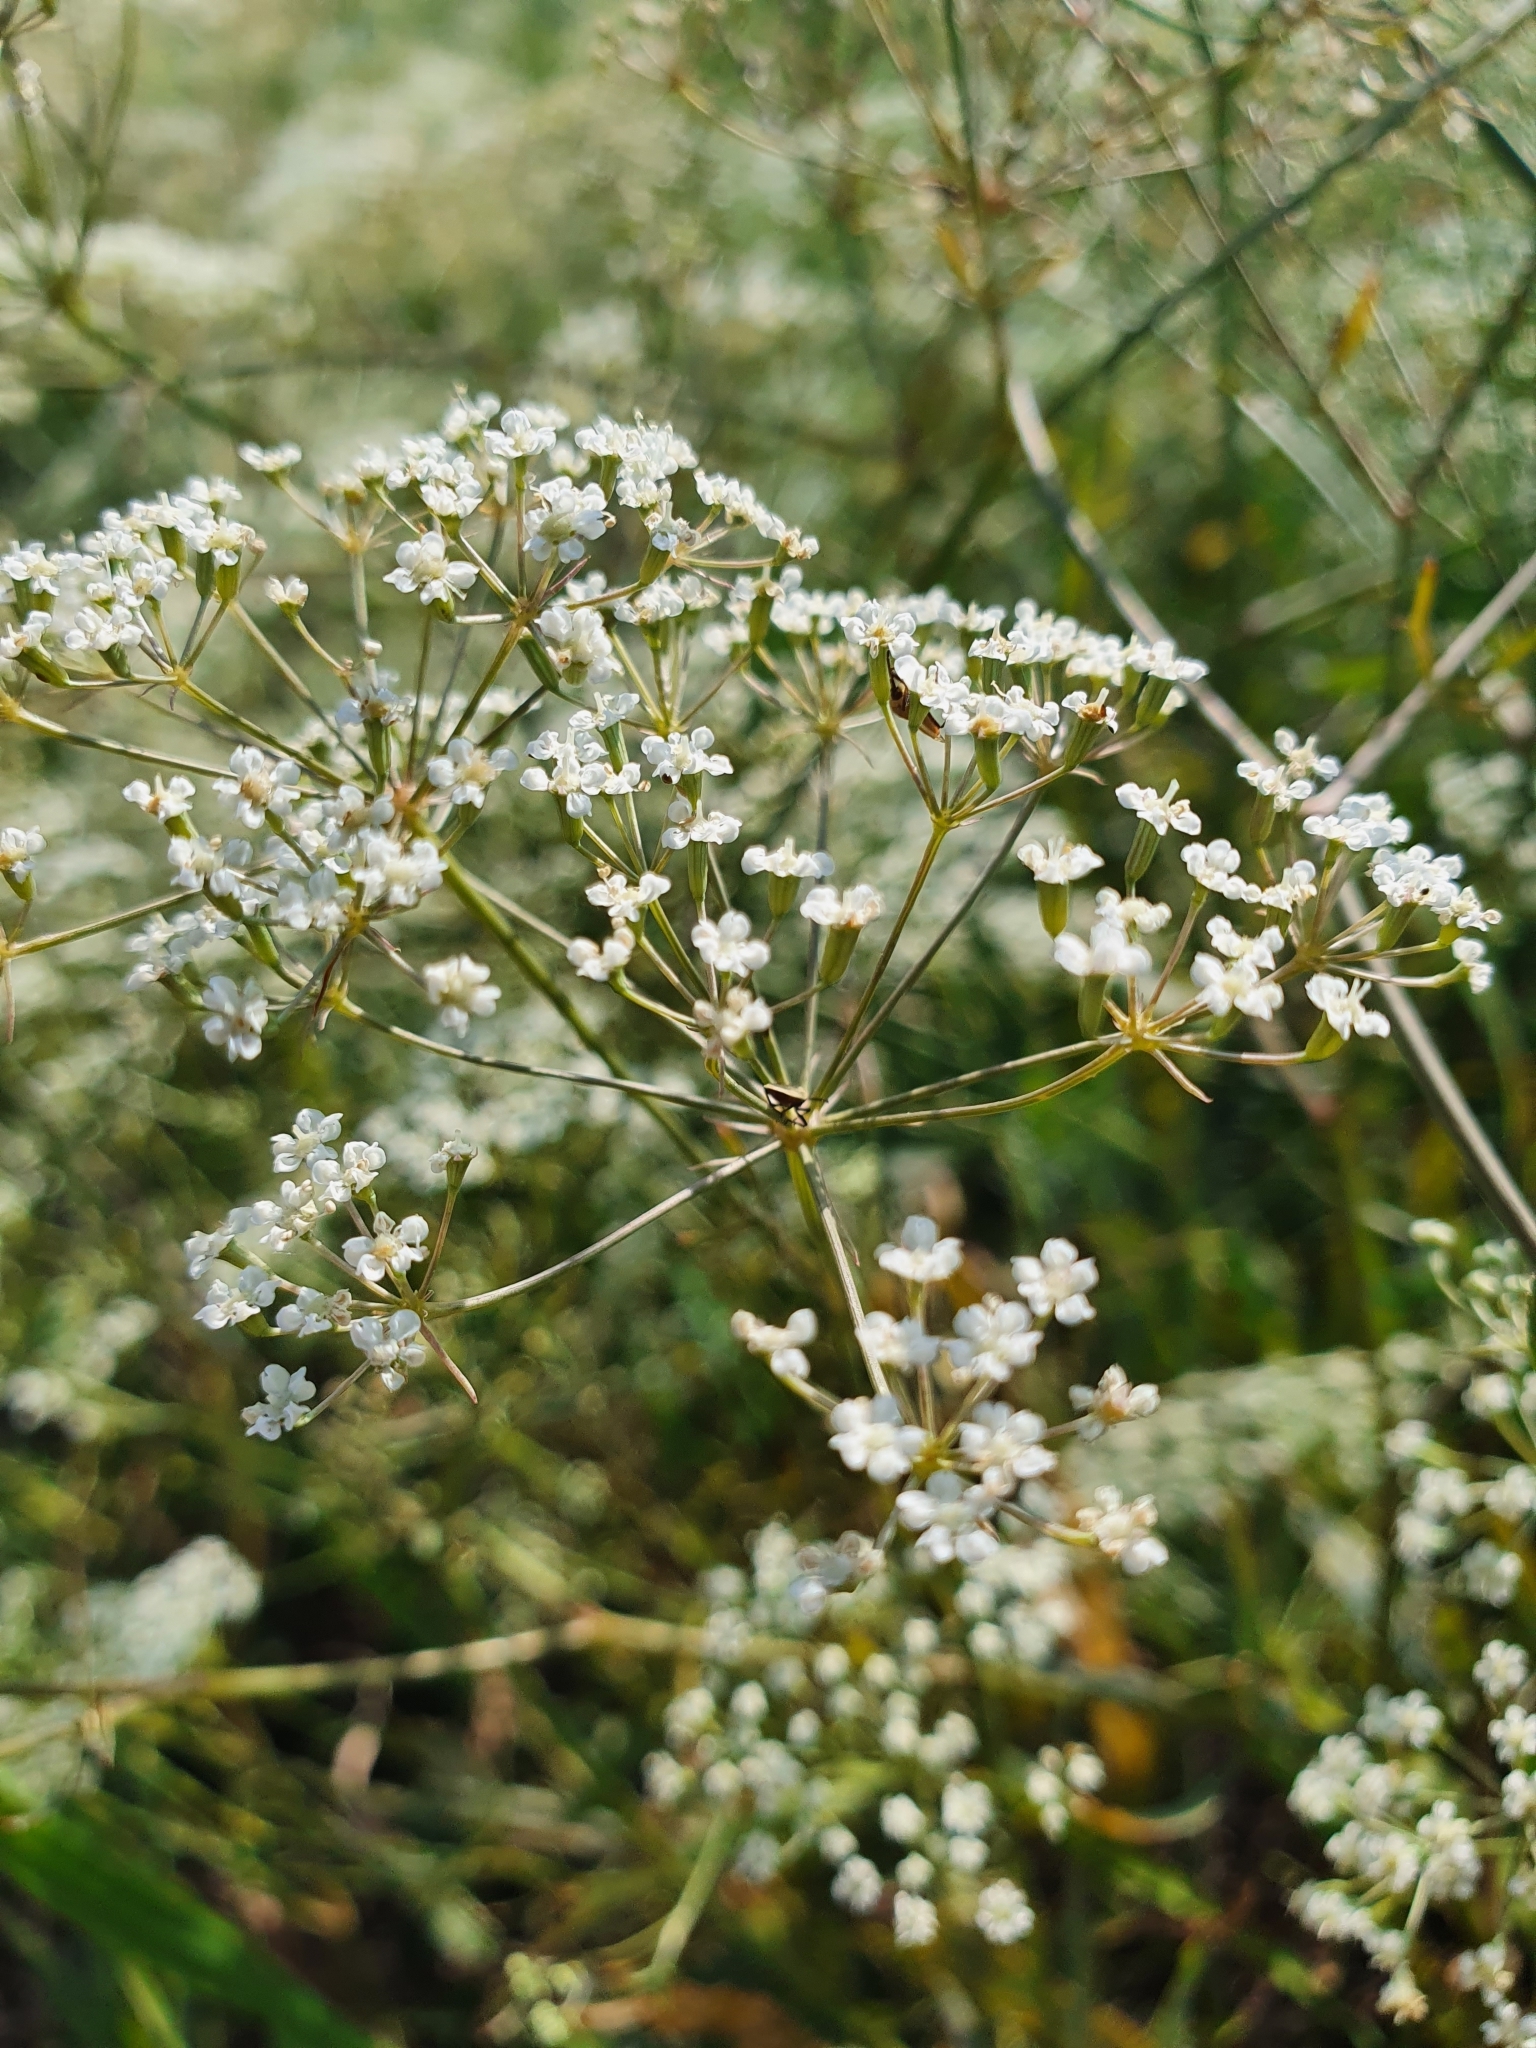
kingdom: Plantae
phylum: Tracheophyta
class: Magnoliopsida
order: Apiales
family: Apiaceae
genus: Falcaria
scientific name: Falcaria vulgaris
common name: Longleaf
